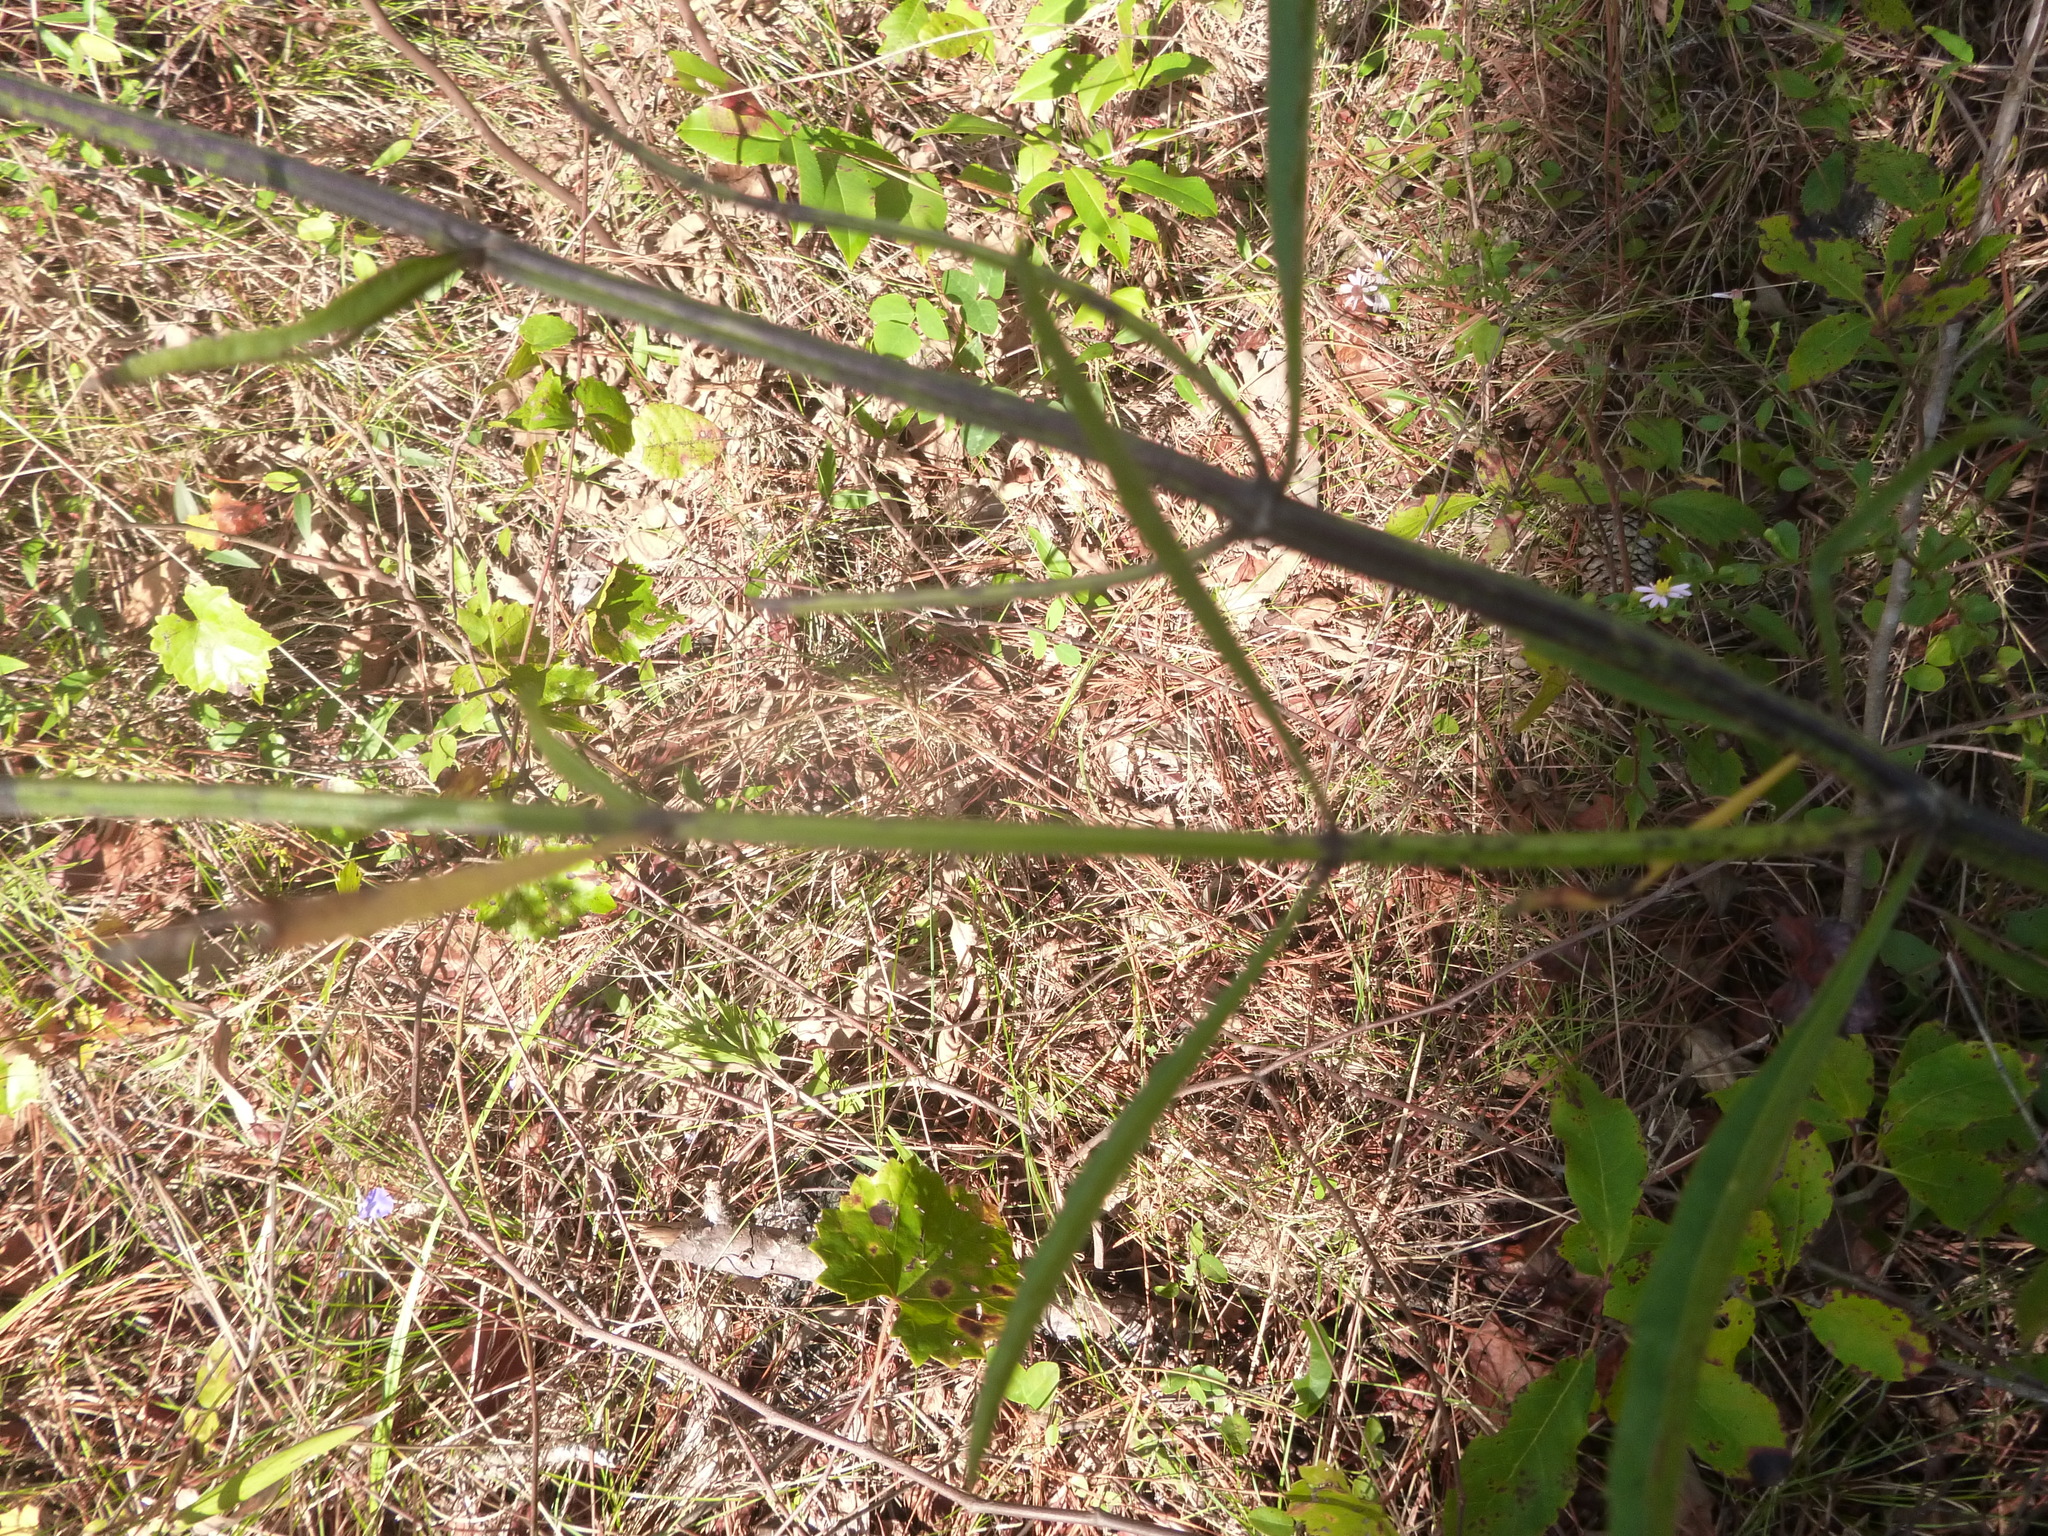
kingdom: Plantae
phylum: Tracheophyta
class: Magnoliopsida
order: Lamiales
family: Lamiaceae
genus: Salvia
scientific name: Salvia azurea
